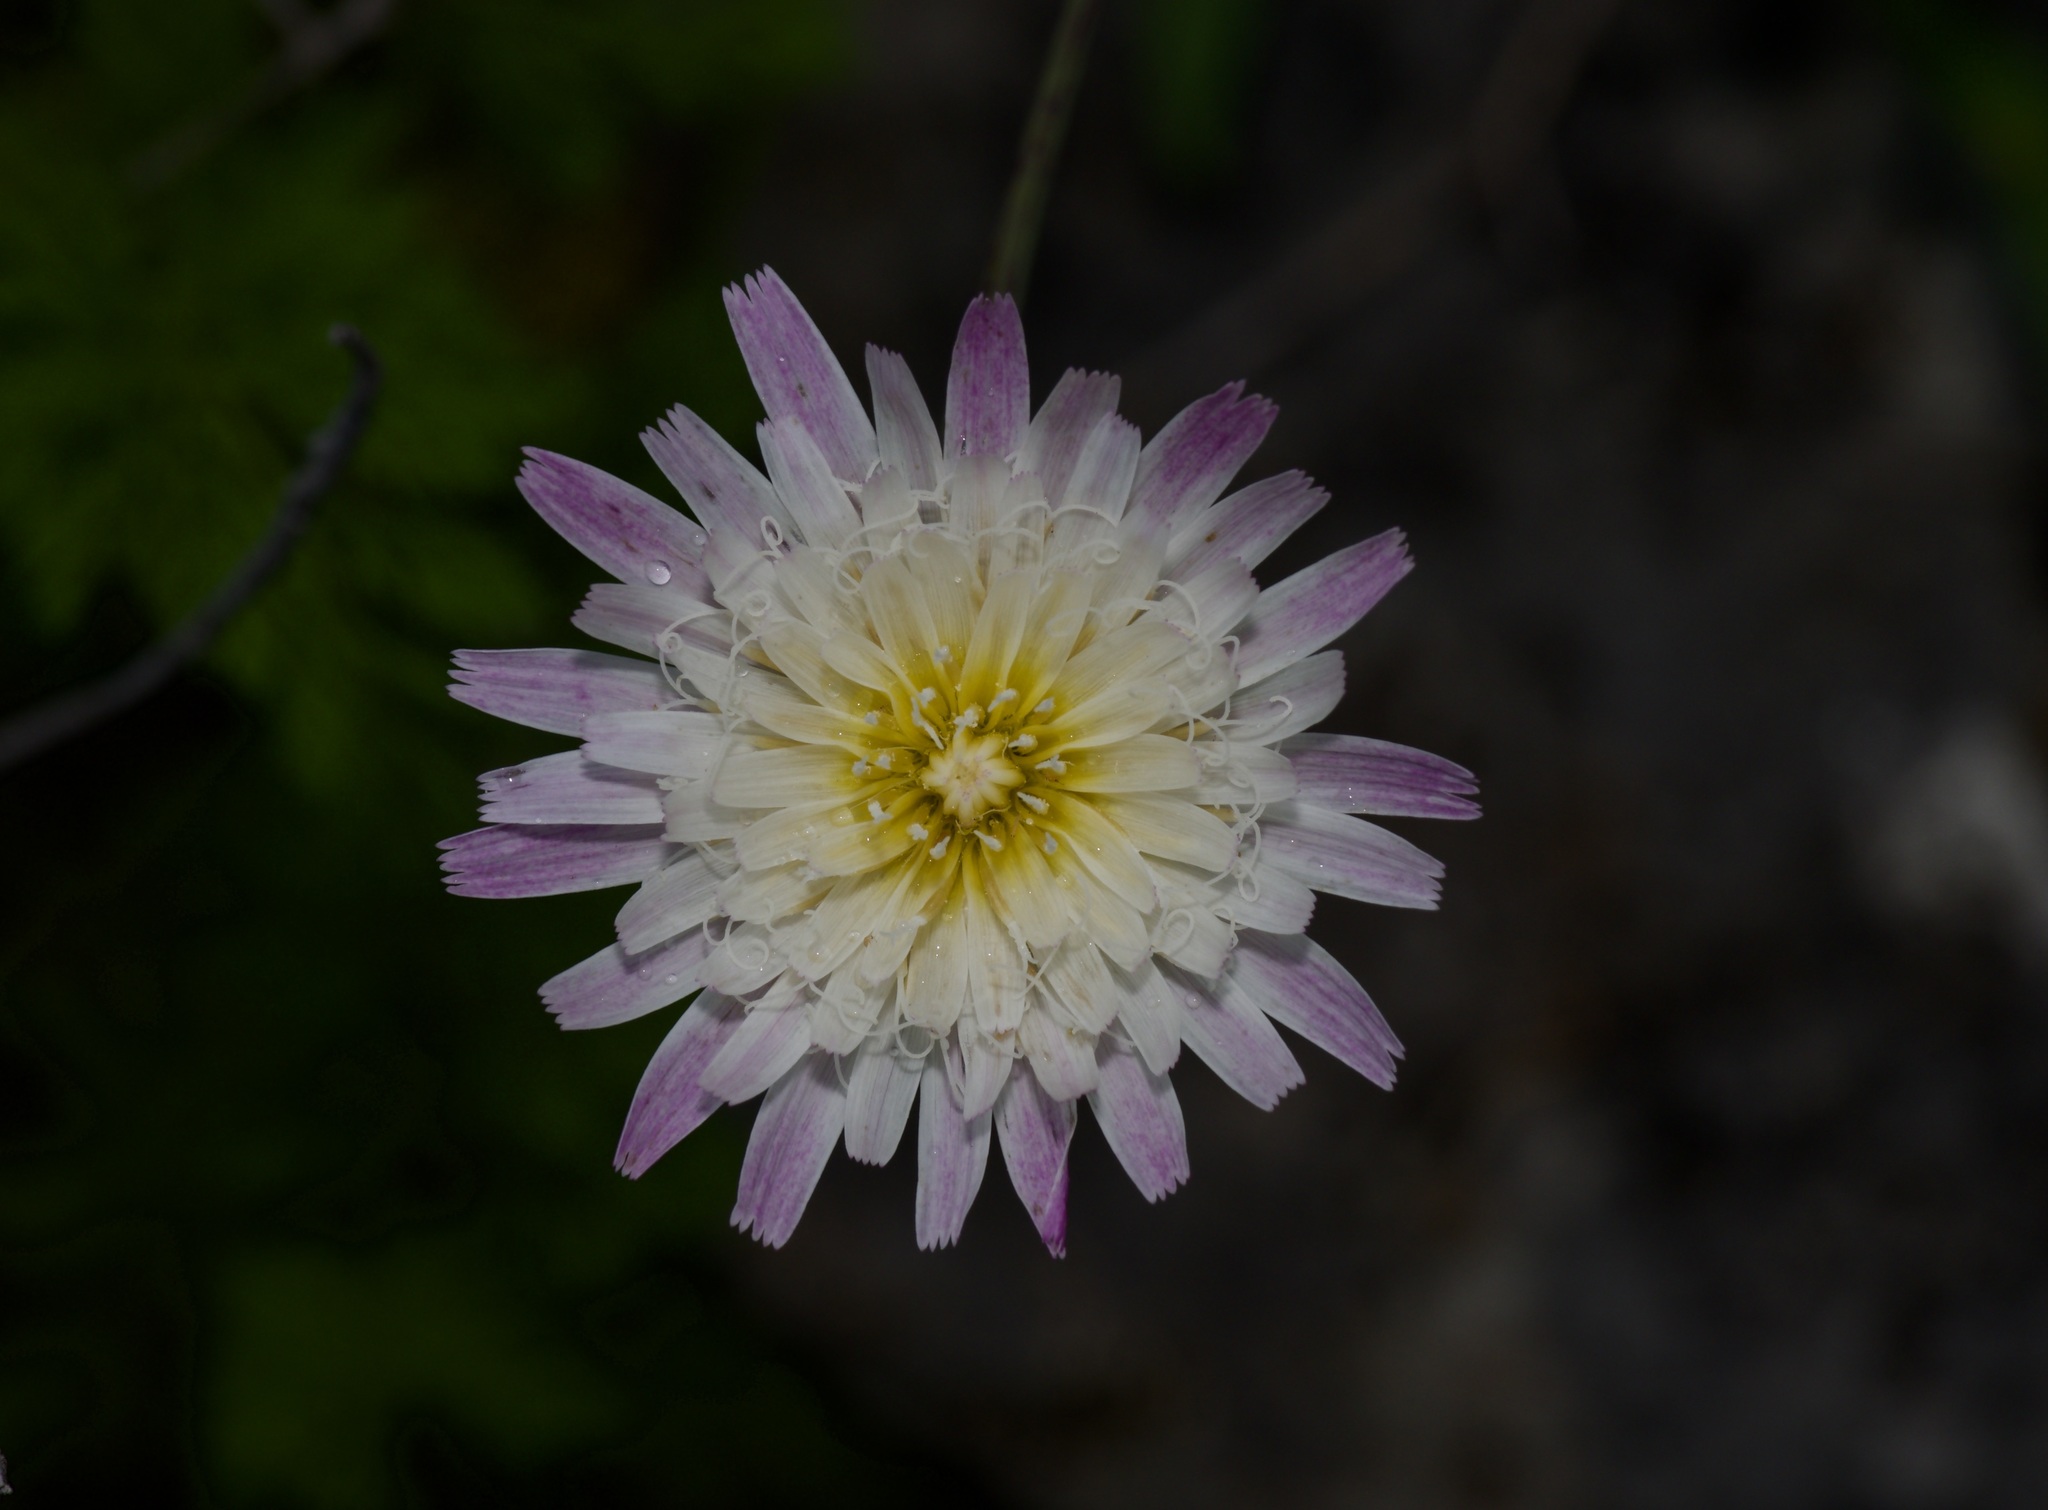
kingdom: Plantae
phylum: Tracheophyta
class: Magnoliopsida
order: Asterales
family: Asteraceae
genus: Pinaropappus
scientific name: Pinaropappus roseus
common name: Rock-lettuce
